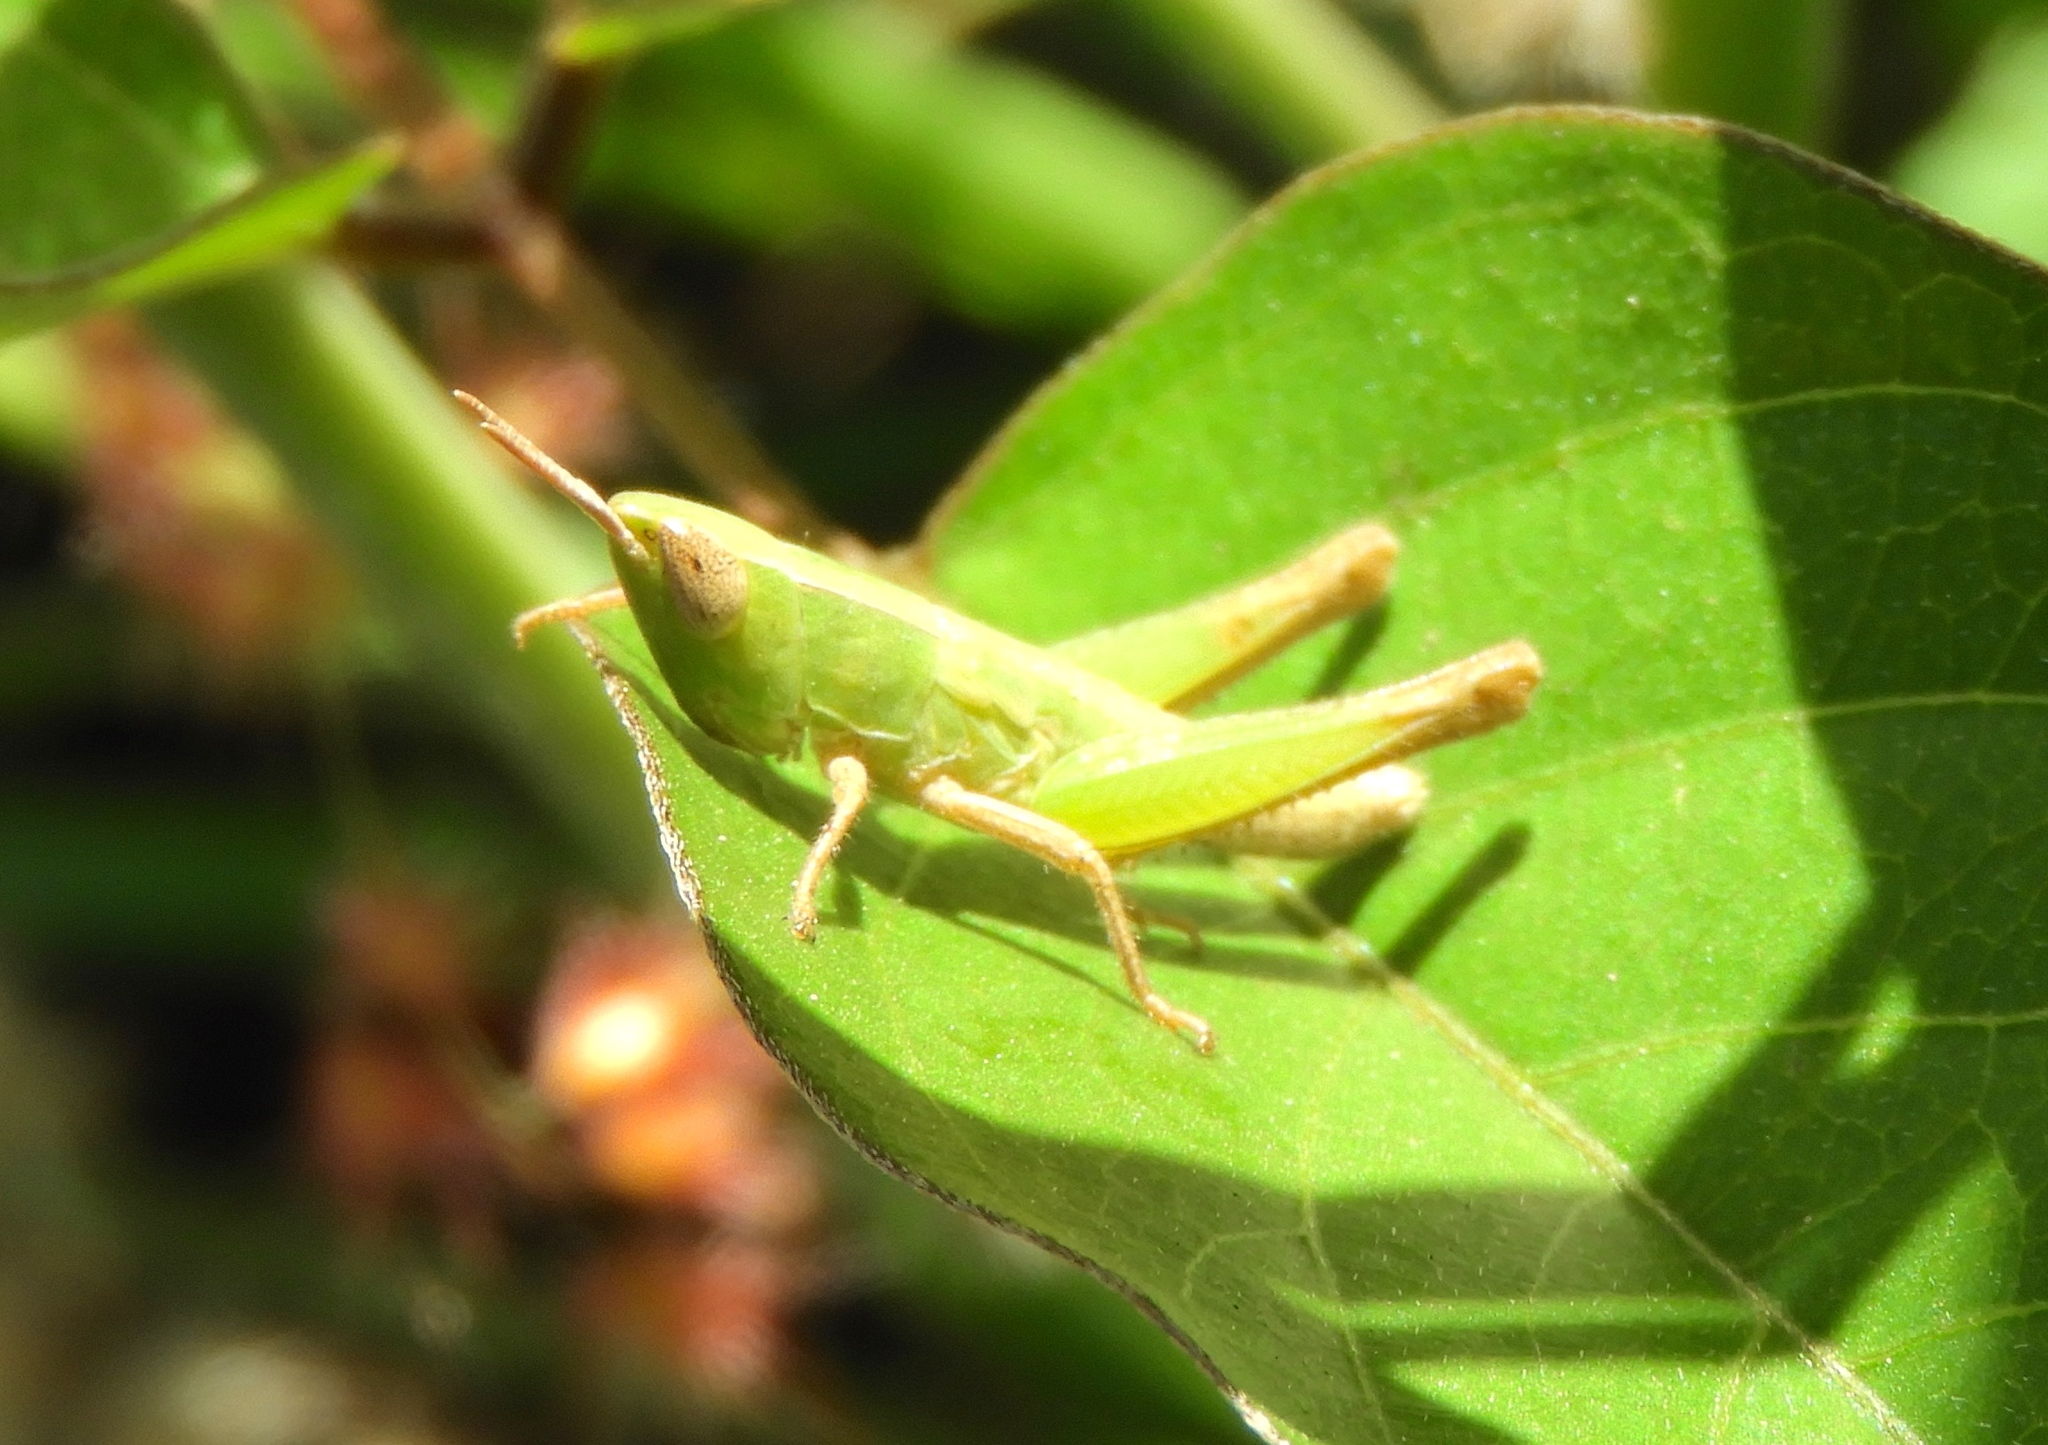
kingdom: Animalia
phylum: Arthropoda
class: Insecta
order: Orthoptera
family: Acrididae
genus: Dichromorpha
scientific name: Dichromorpha prominula
